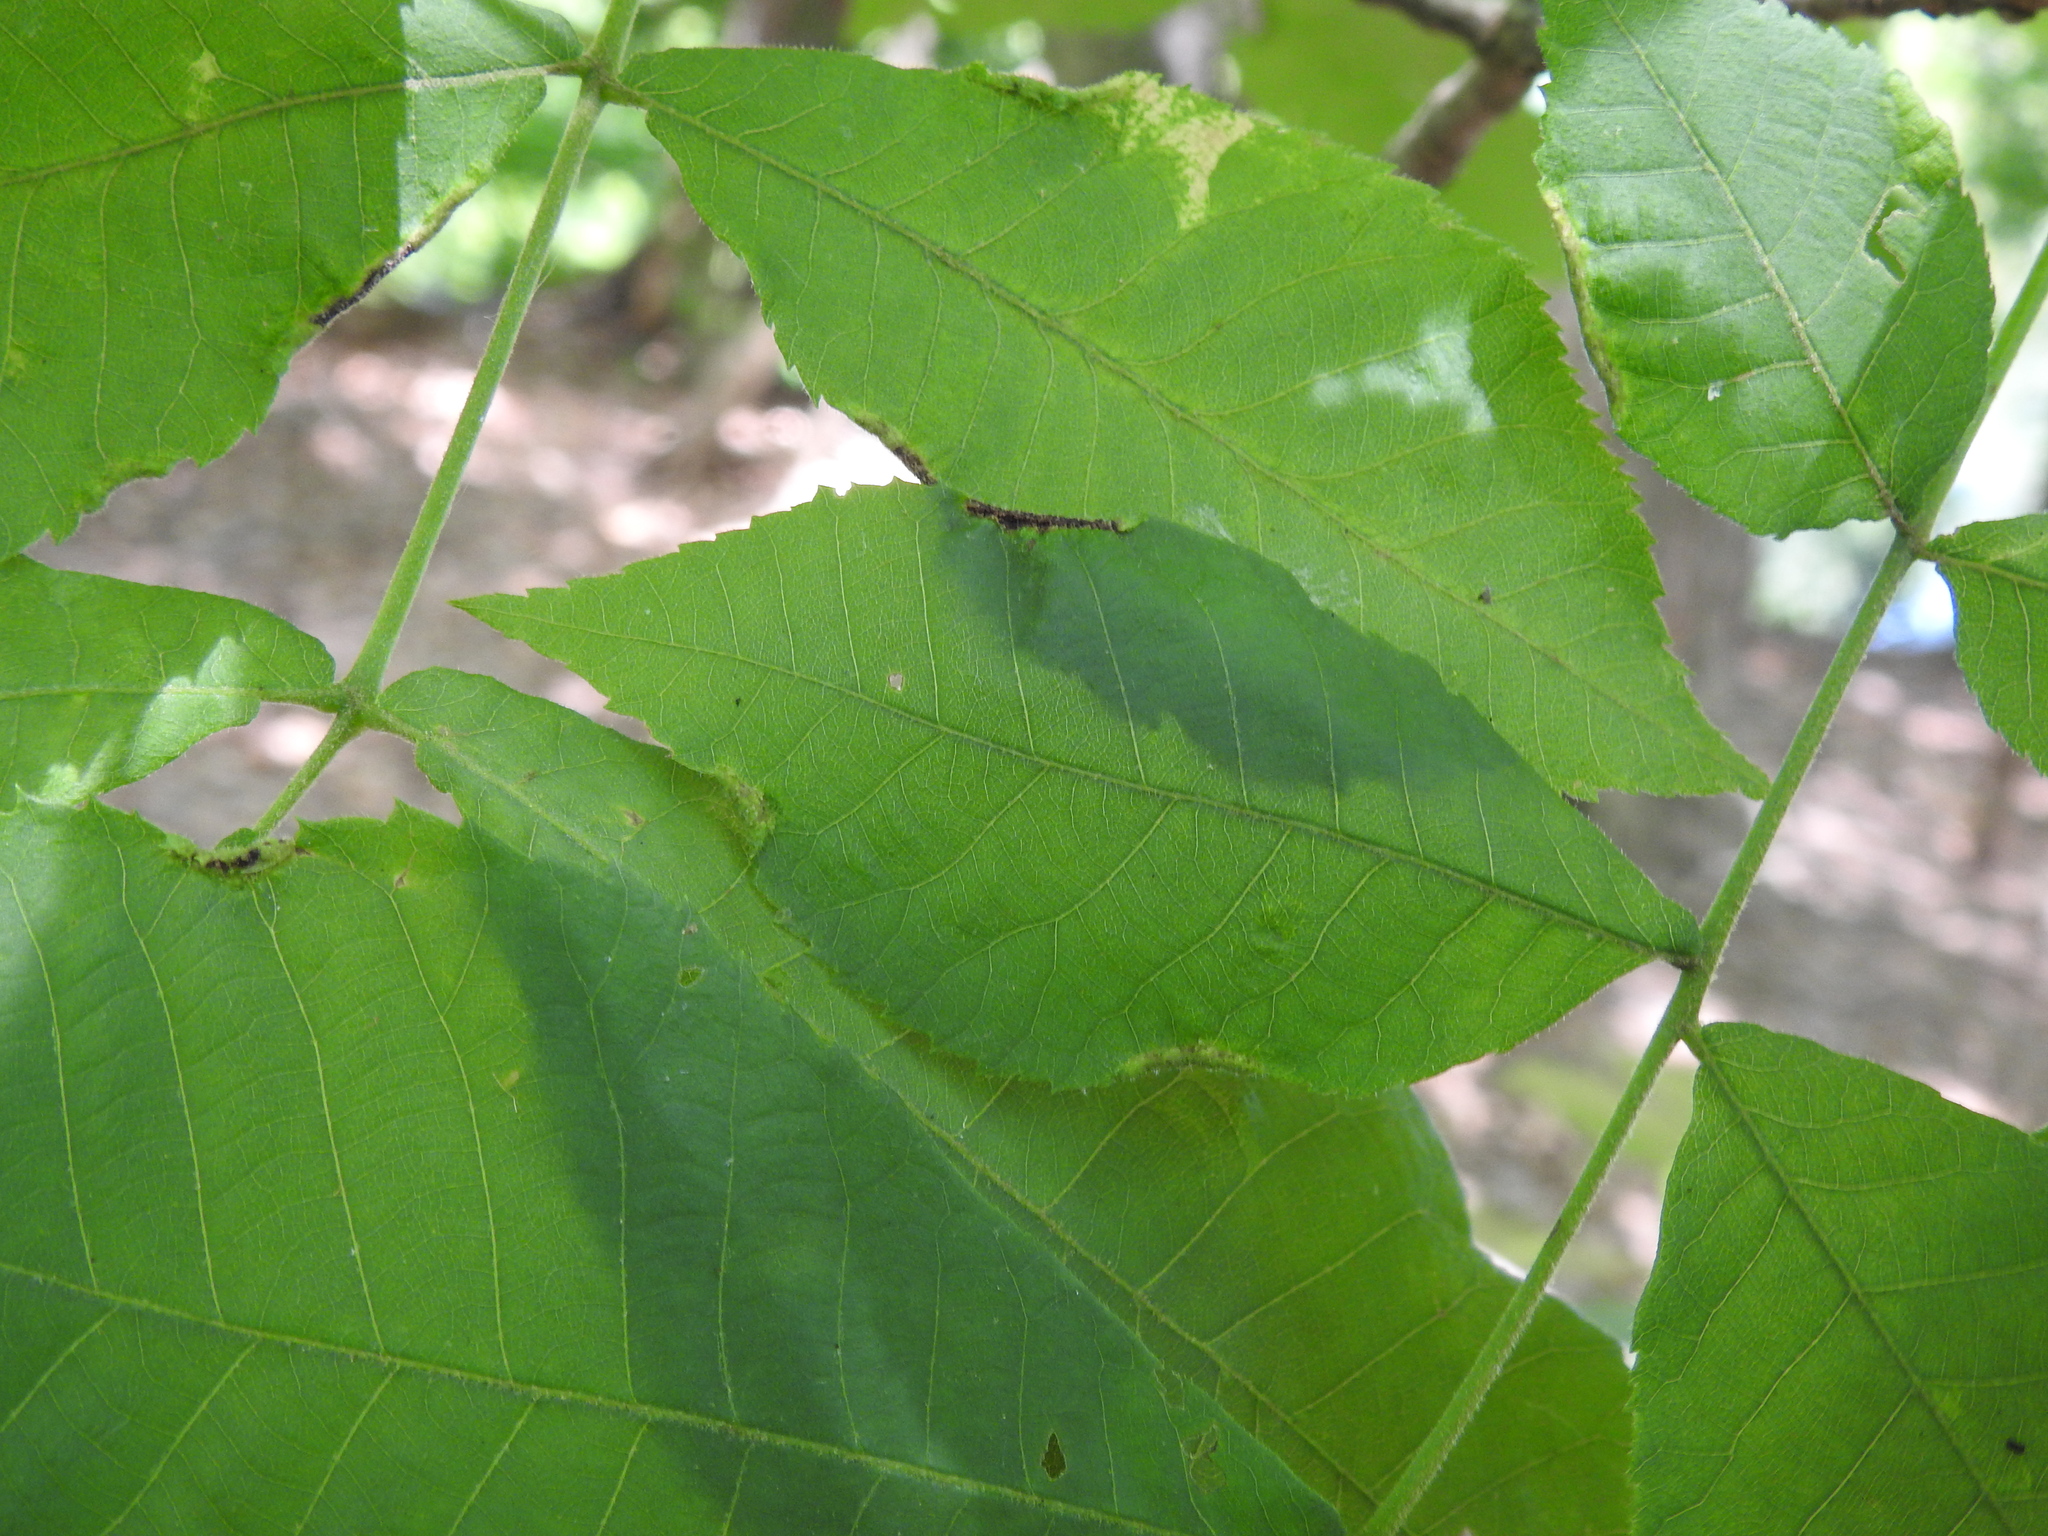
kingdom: Animalia
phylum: Arthropoda
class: Arachnida
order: Trombidiformes
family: Eriophyidae
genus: Aceria
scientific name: Aceria carlinae
